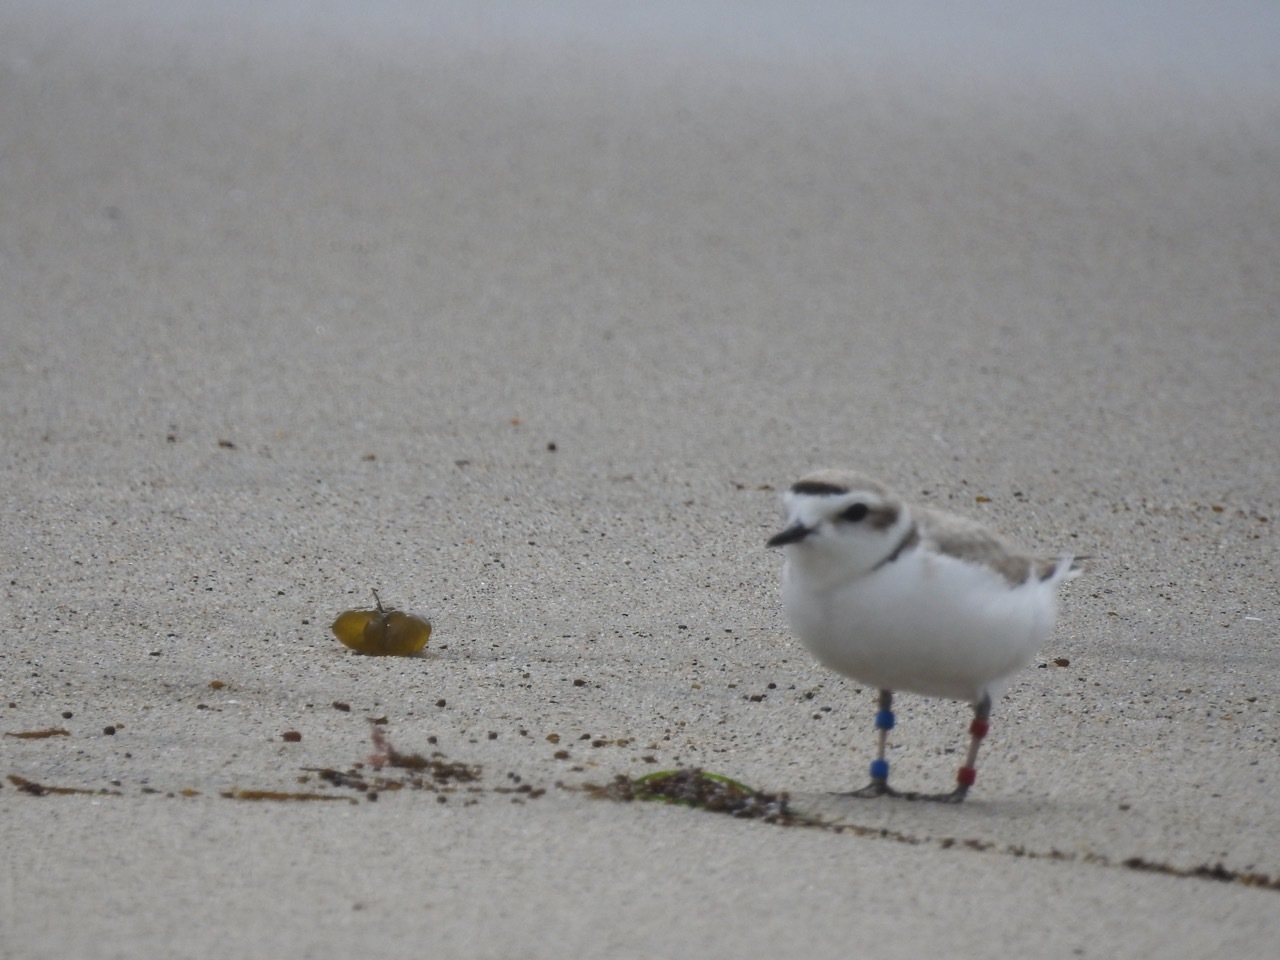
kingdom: Animalia
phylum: Chordata
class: Aves
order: Charadriiformes
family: Charadriidae
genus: Anarhynchus
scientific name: Anarhynchus
